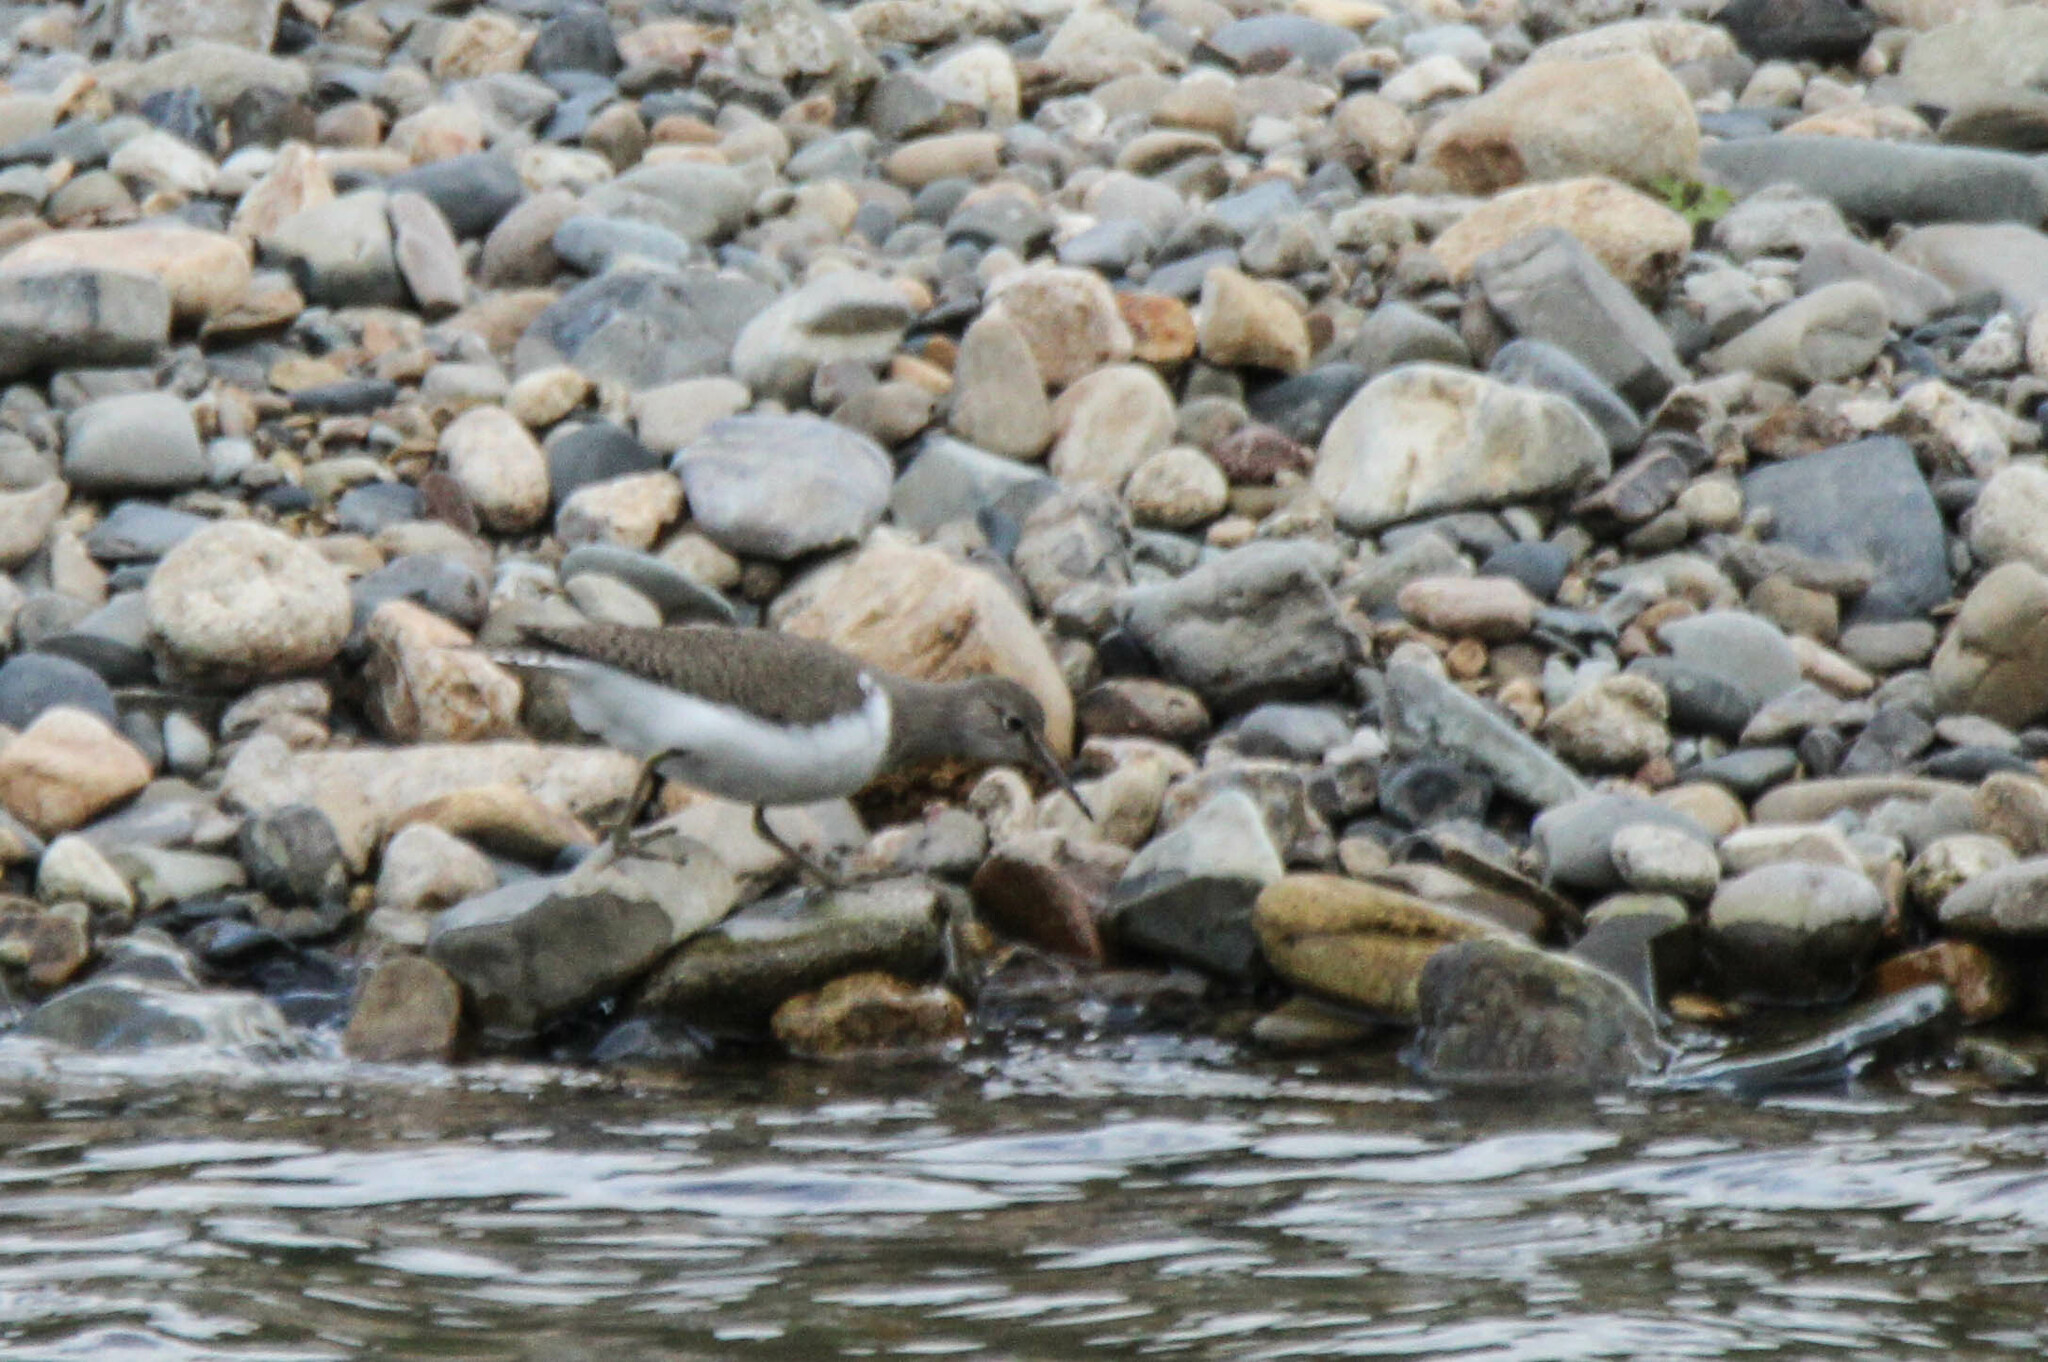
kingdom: Animalia
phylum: Chordata
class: Aves
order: Charadriiformes
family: Scolopacidae
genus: Actitis
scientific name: Actitis hypoleucos
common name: Common sandpiper
